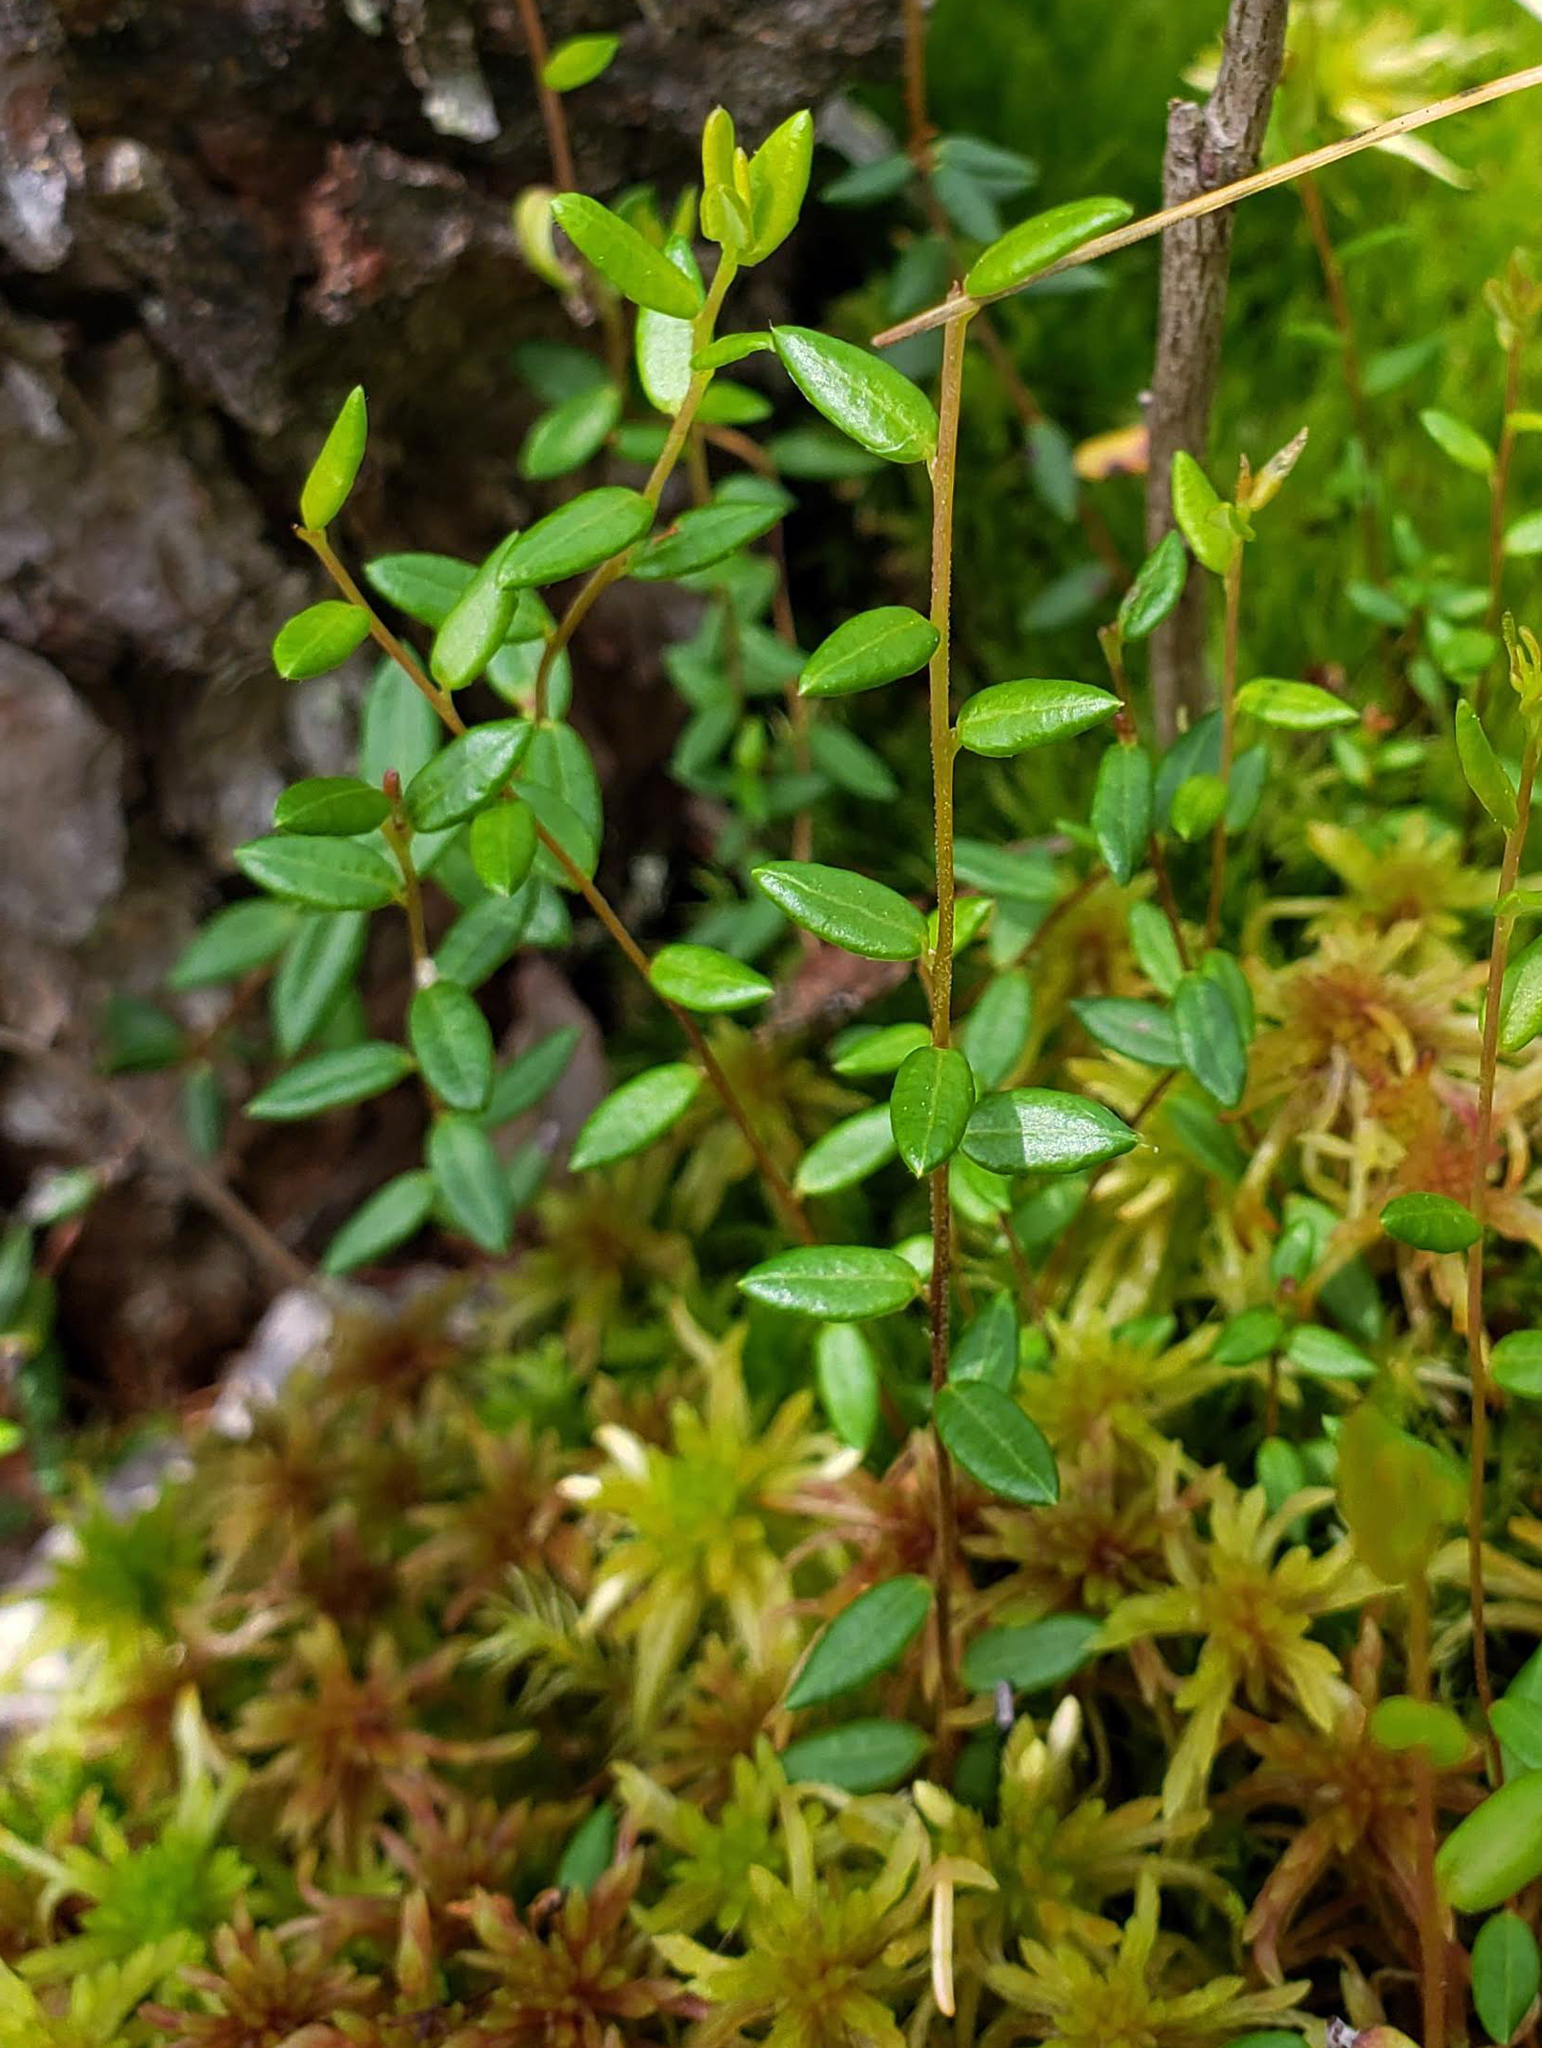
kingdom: Plantae
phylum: Tracheophyta
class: Magnoliopsida
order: Ericales
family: Ericaceae
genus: Vaccinium
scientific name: Vaccinium oxycoccos
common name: Cranberry
